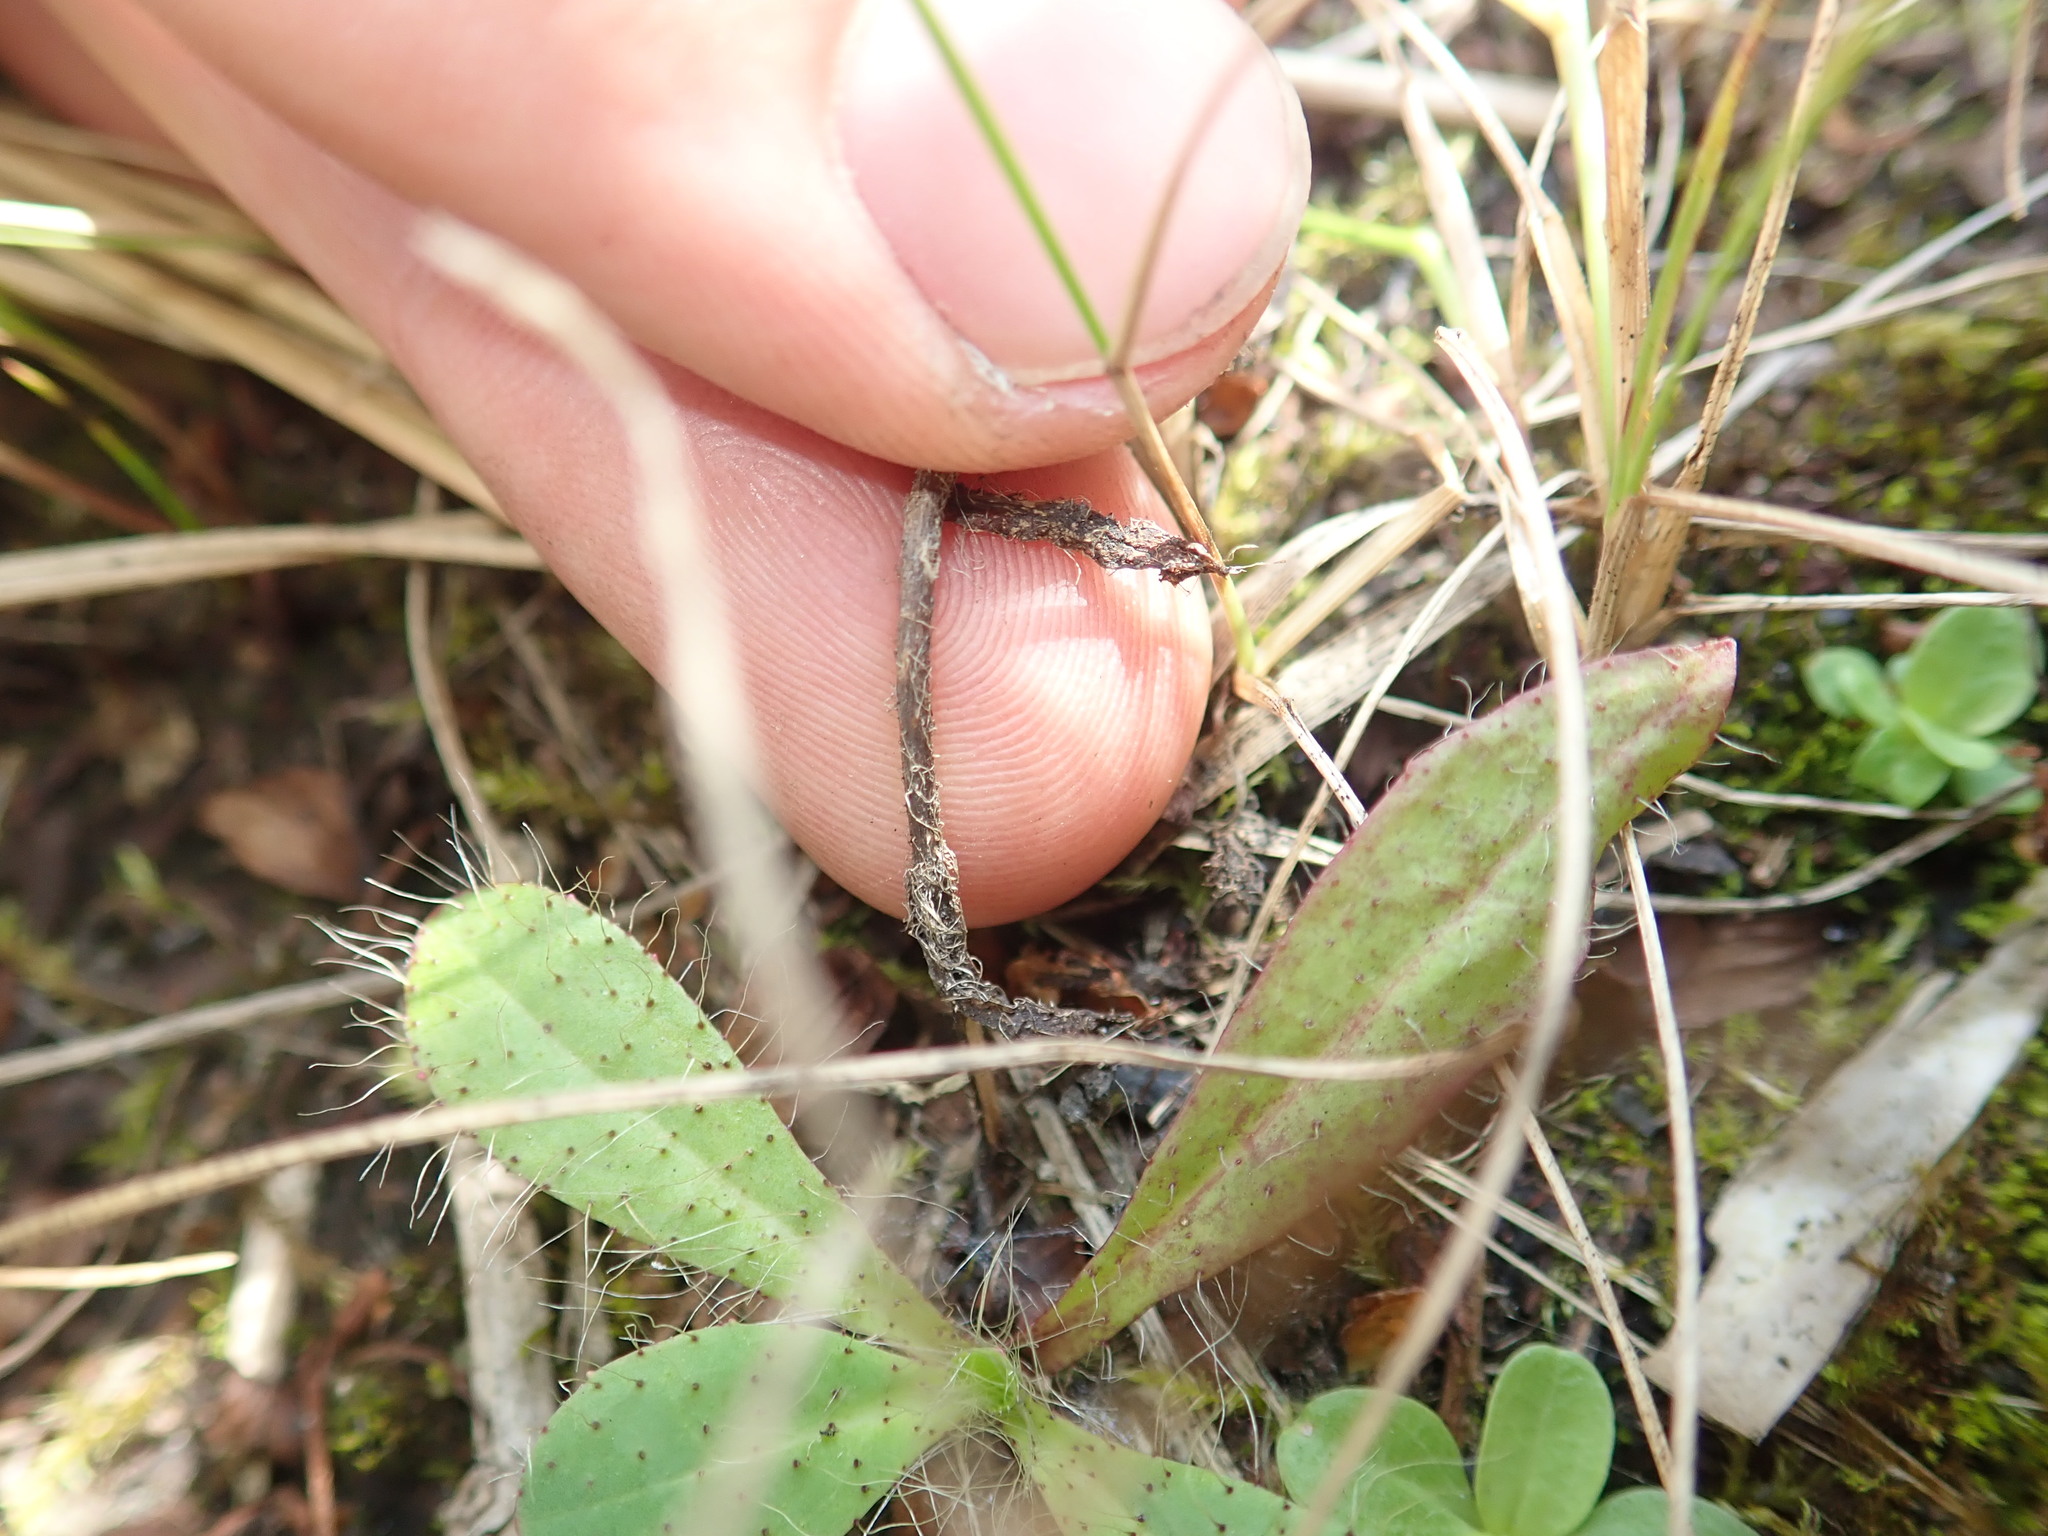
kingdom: Plantae
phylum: Tracheophyta
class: Magnoliopsida
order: Asterales
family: Asteraceae
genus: Pilosella
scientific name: Pilosella bauhini
